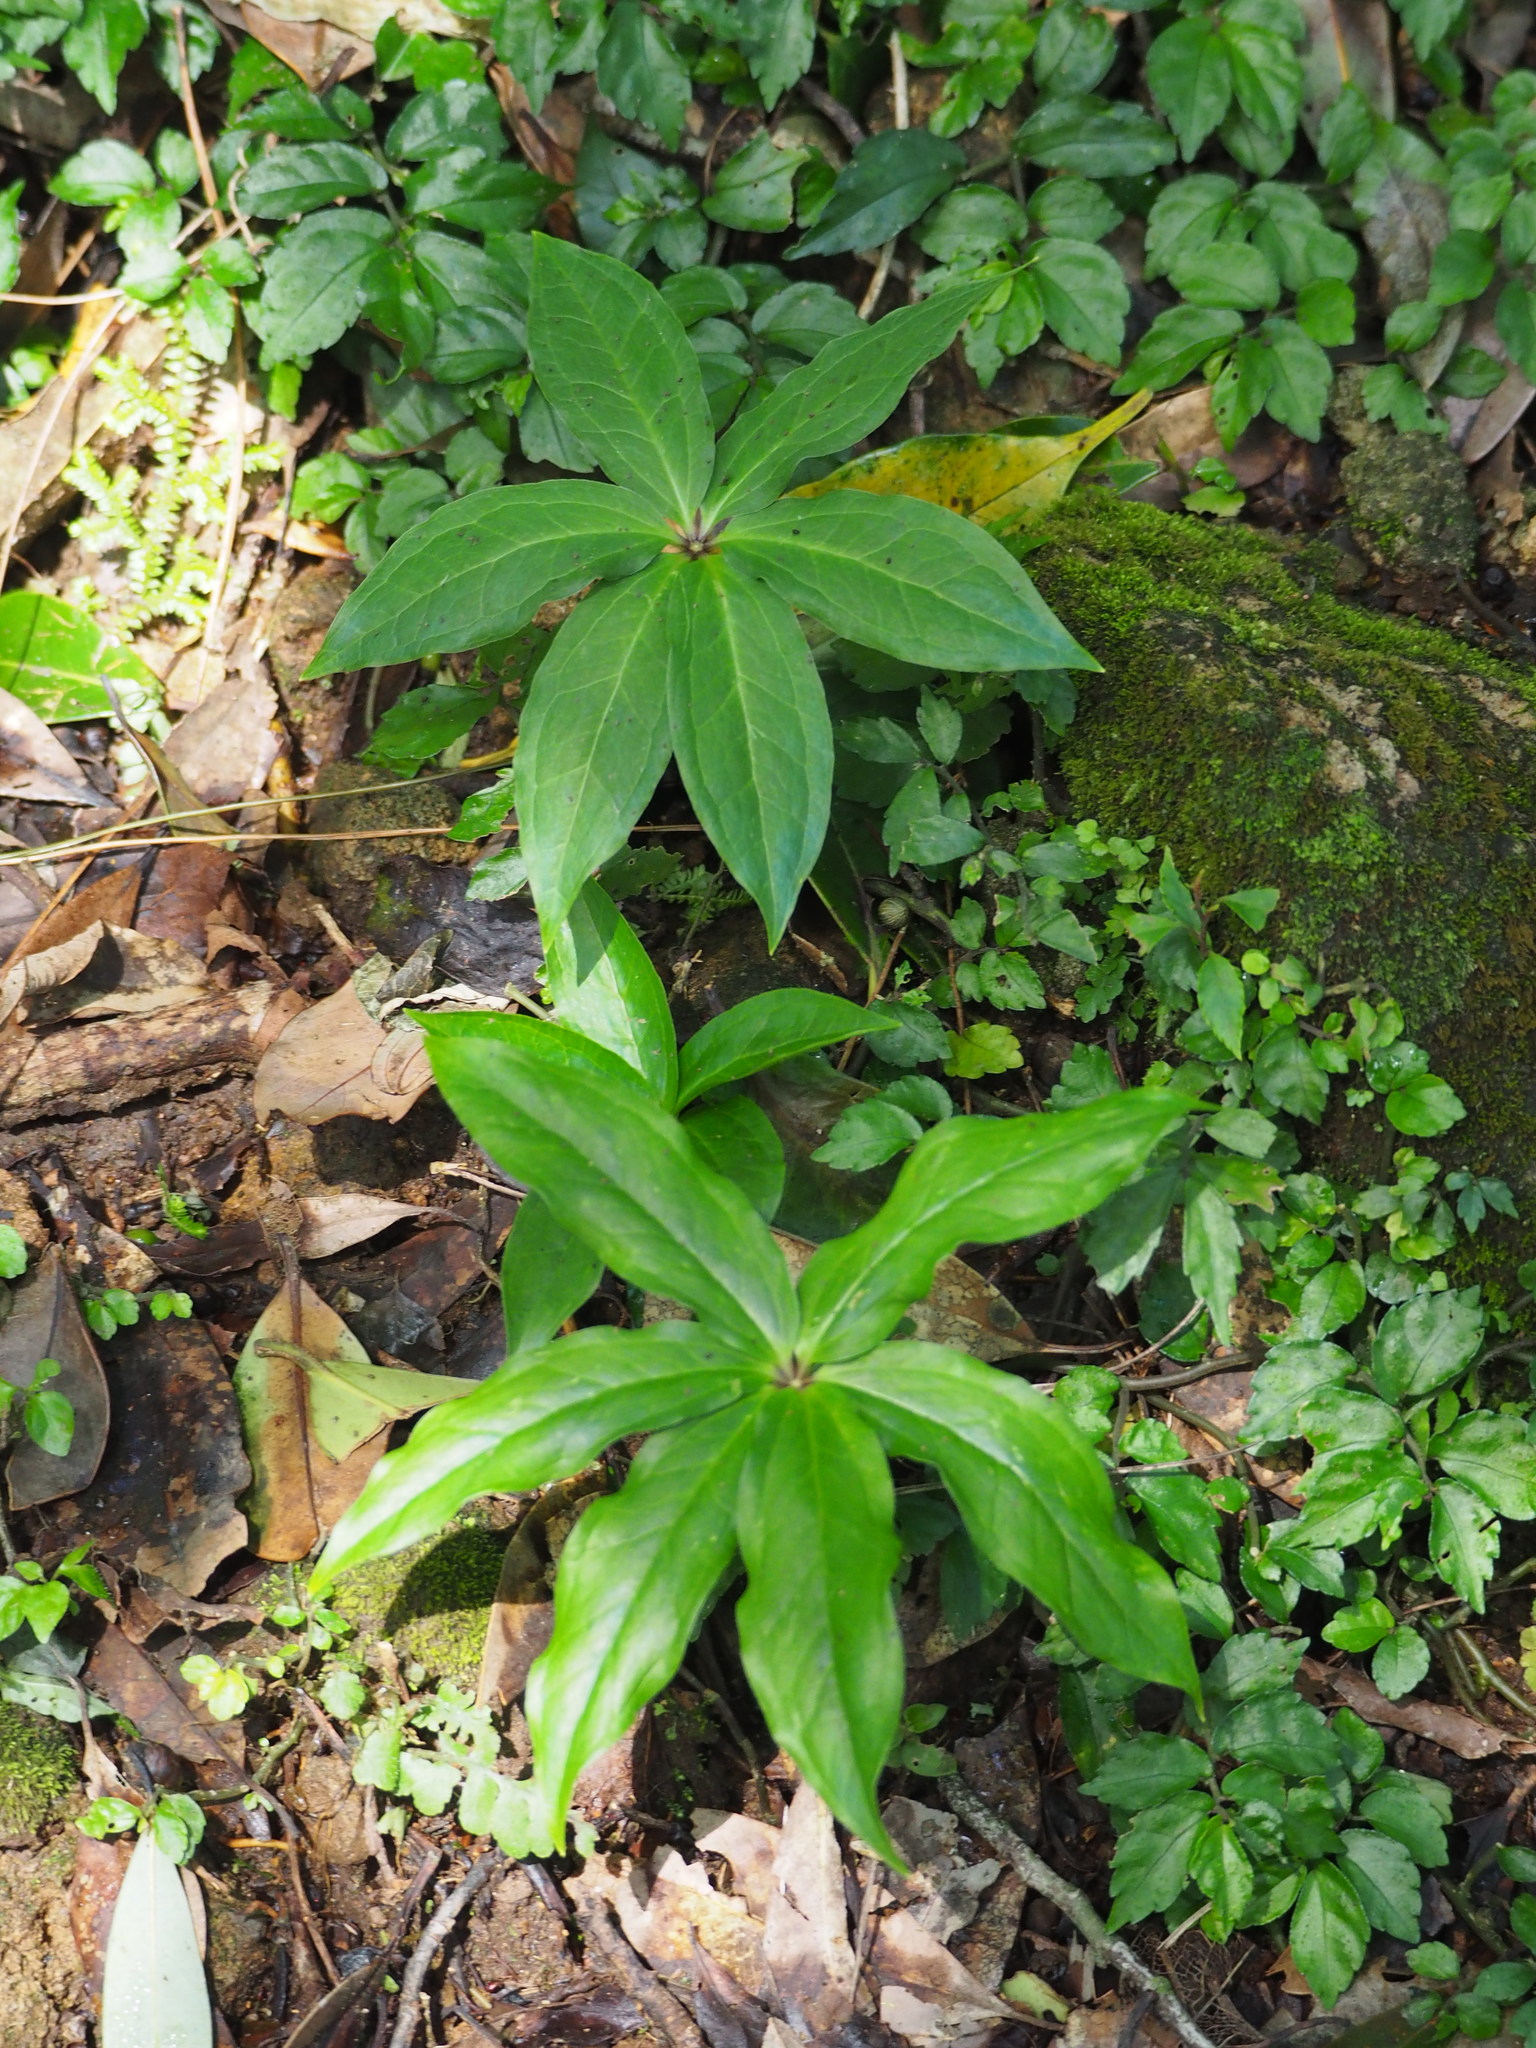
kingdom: Plantae
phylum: Tracheophyta
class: Liliopsida
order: Liliales
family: Melanthiaceae
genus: Paris
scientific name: Paris polyphylla
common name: Love apple
